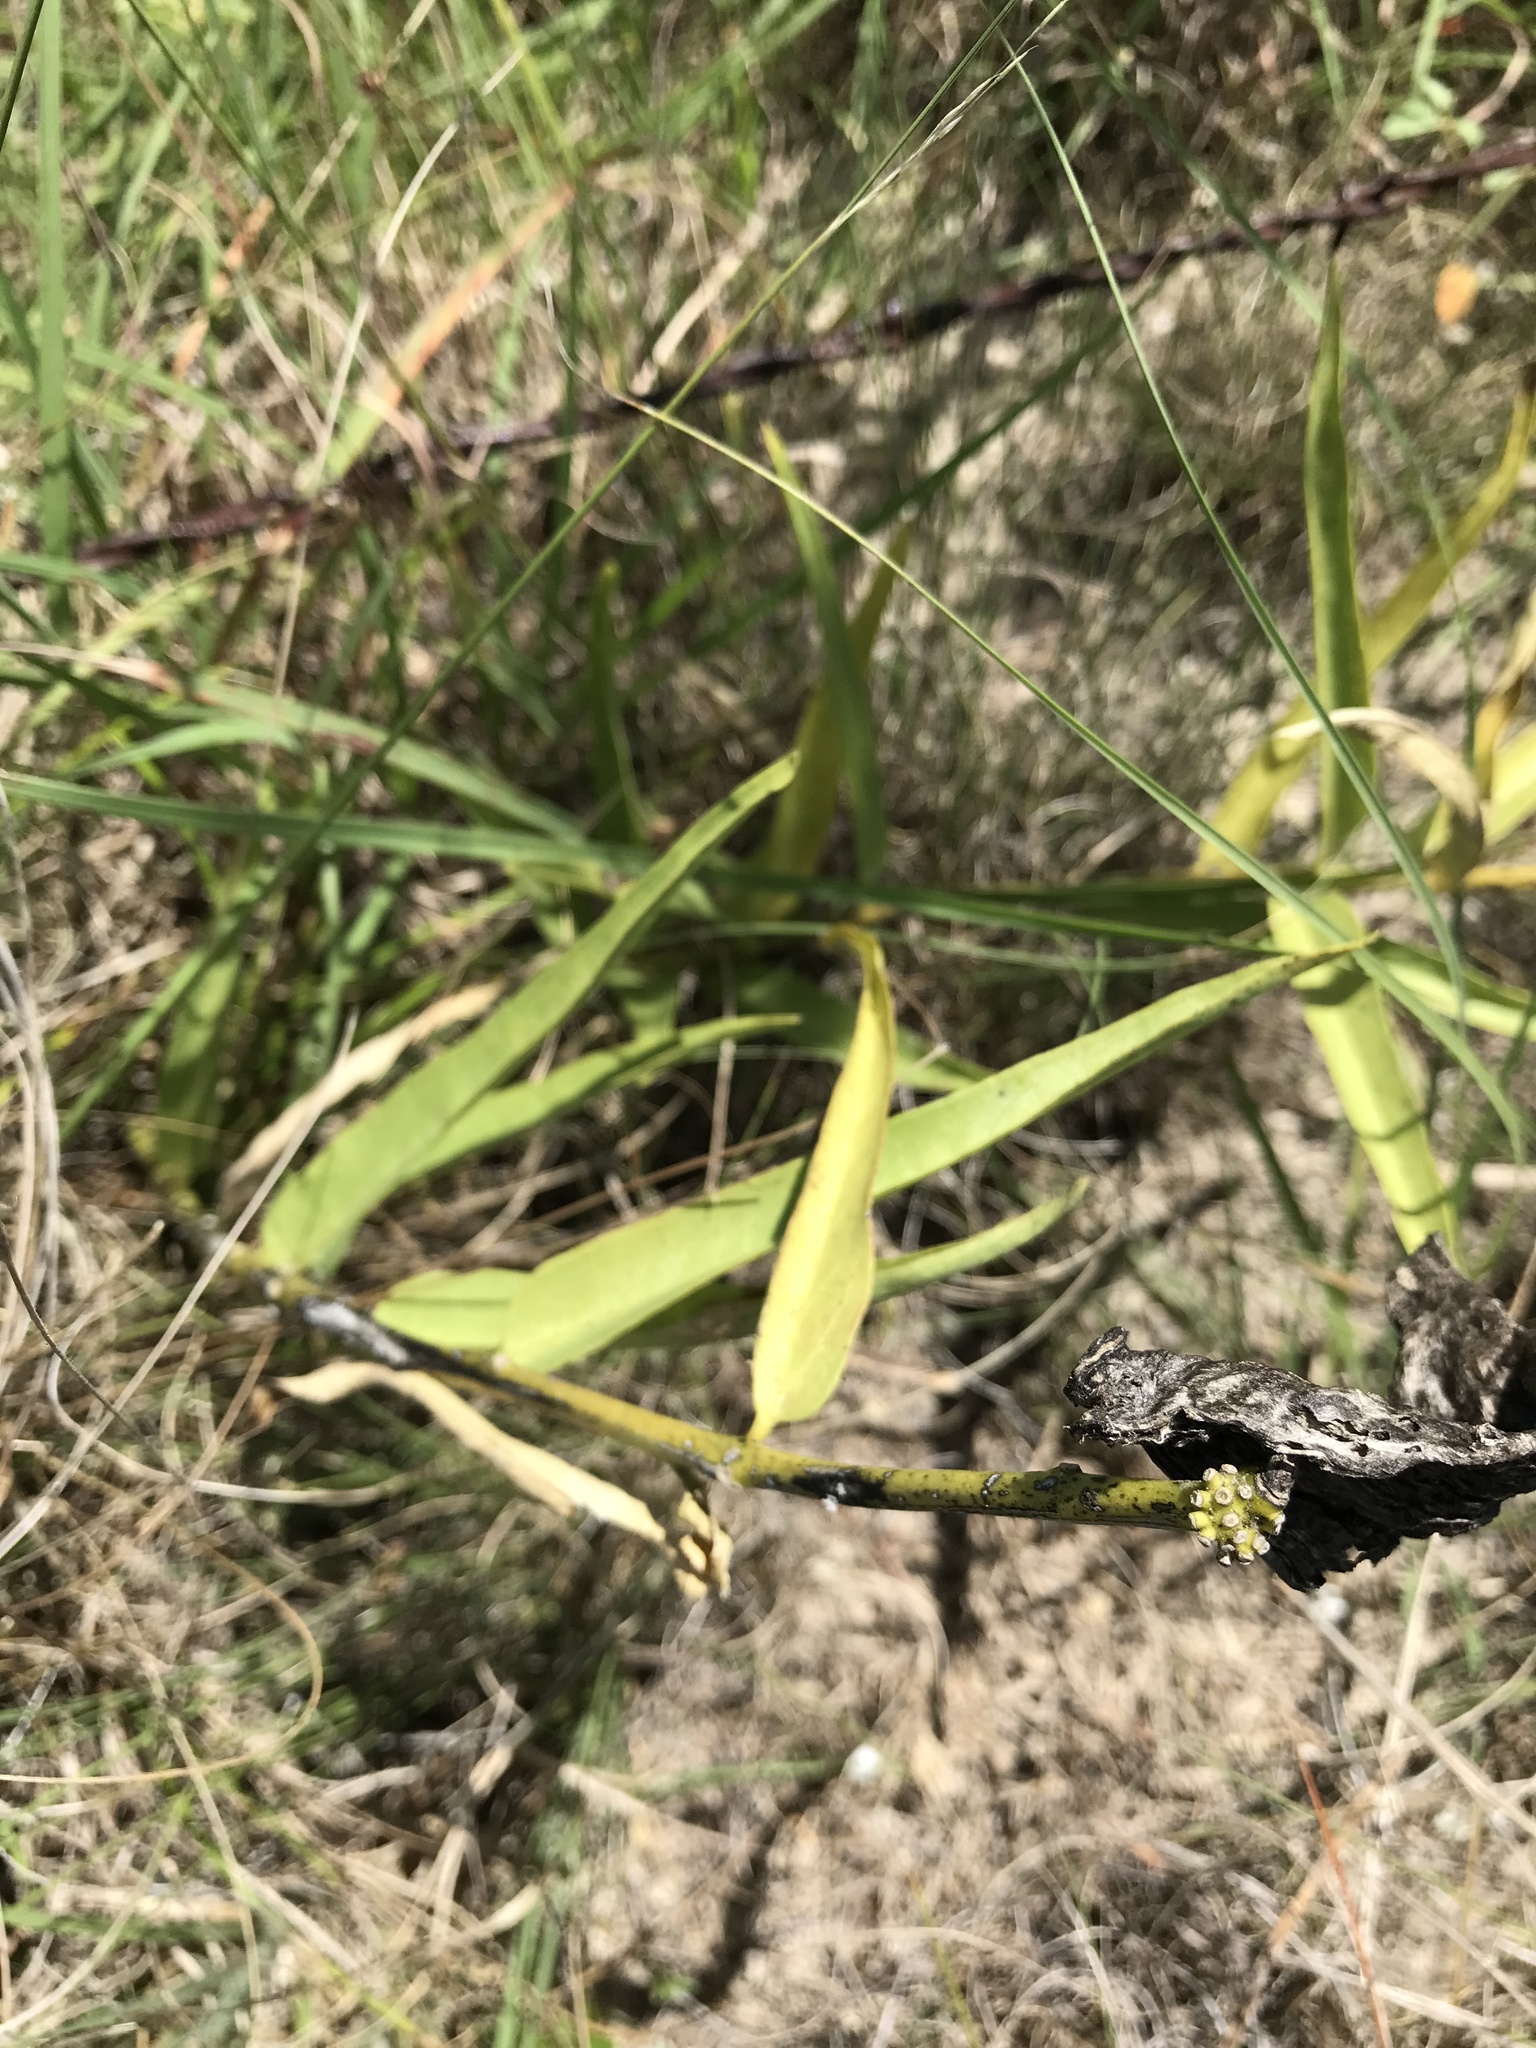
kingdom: Plantae
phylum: Tracheophyta
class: Magnoliopsida
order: Gentianales
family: Apocynaceae
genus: Asclepias
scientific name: Asclepias asperula
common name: Antelope horns
